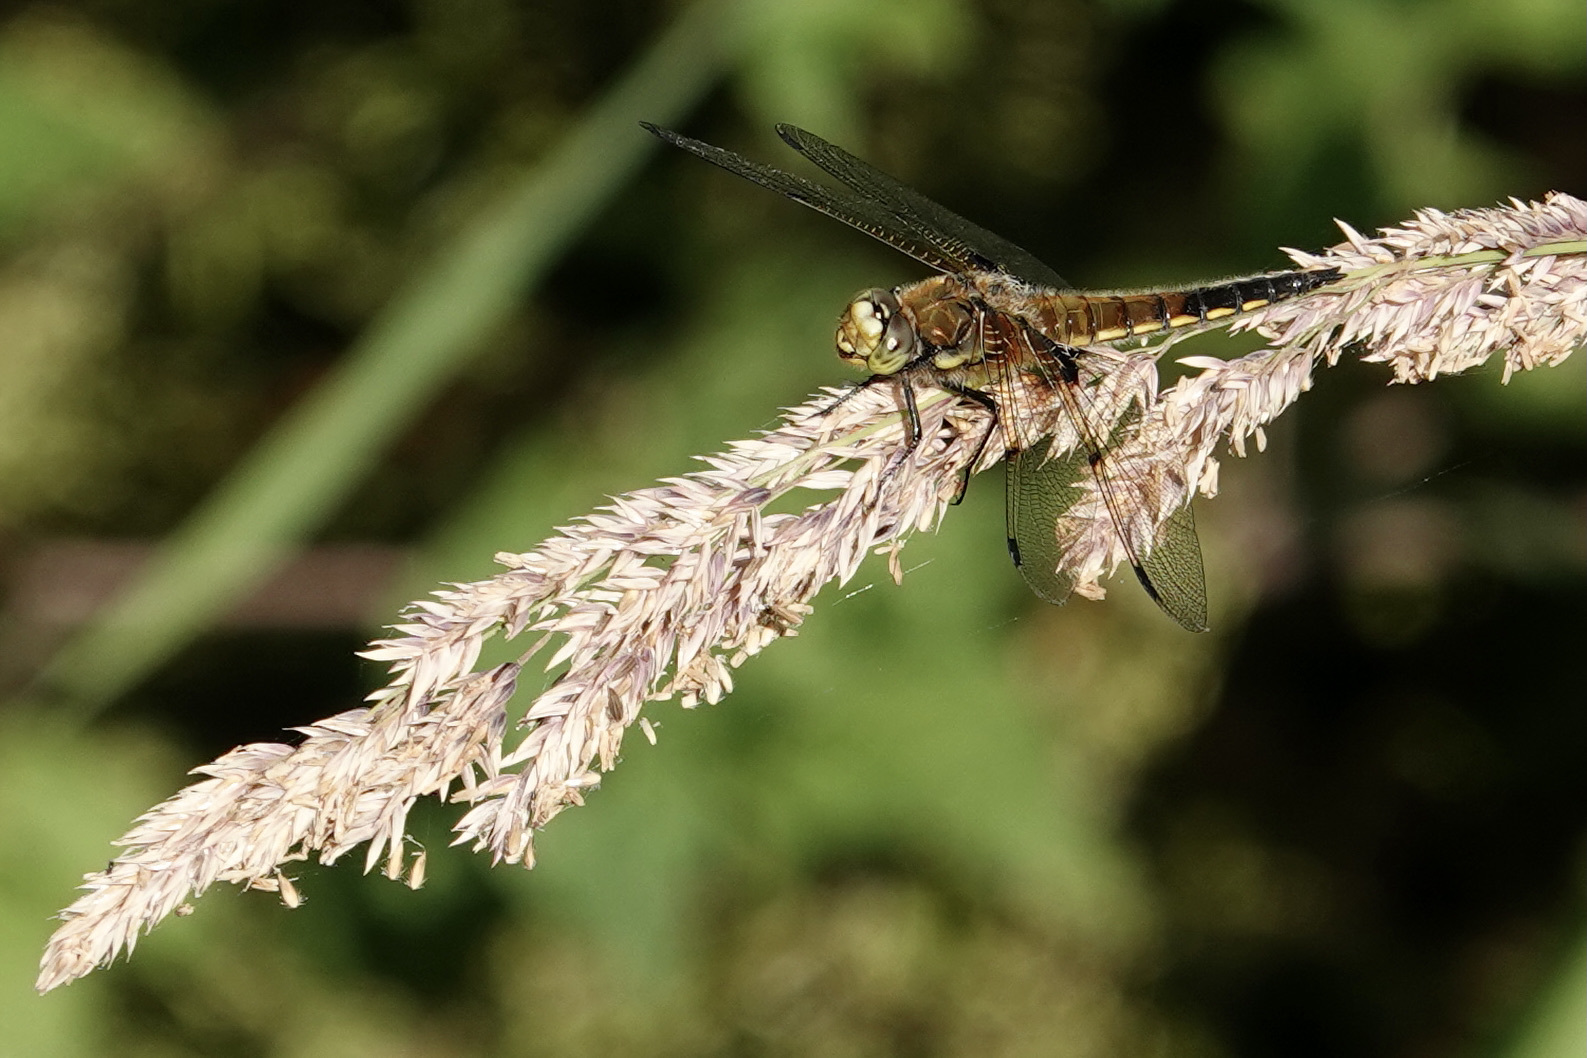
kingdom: Animalia
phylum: Arthropoda
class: Insecta
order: Odonata
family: Libellulidae
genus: Libellula
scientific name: Libellula quadrimaculata
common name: Four-spotted chaser
